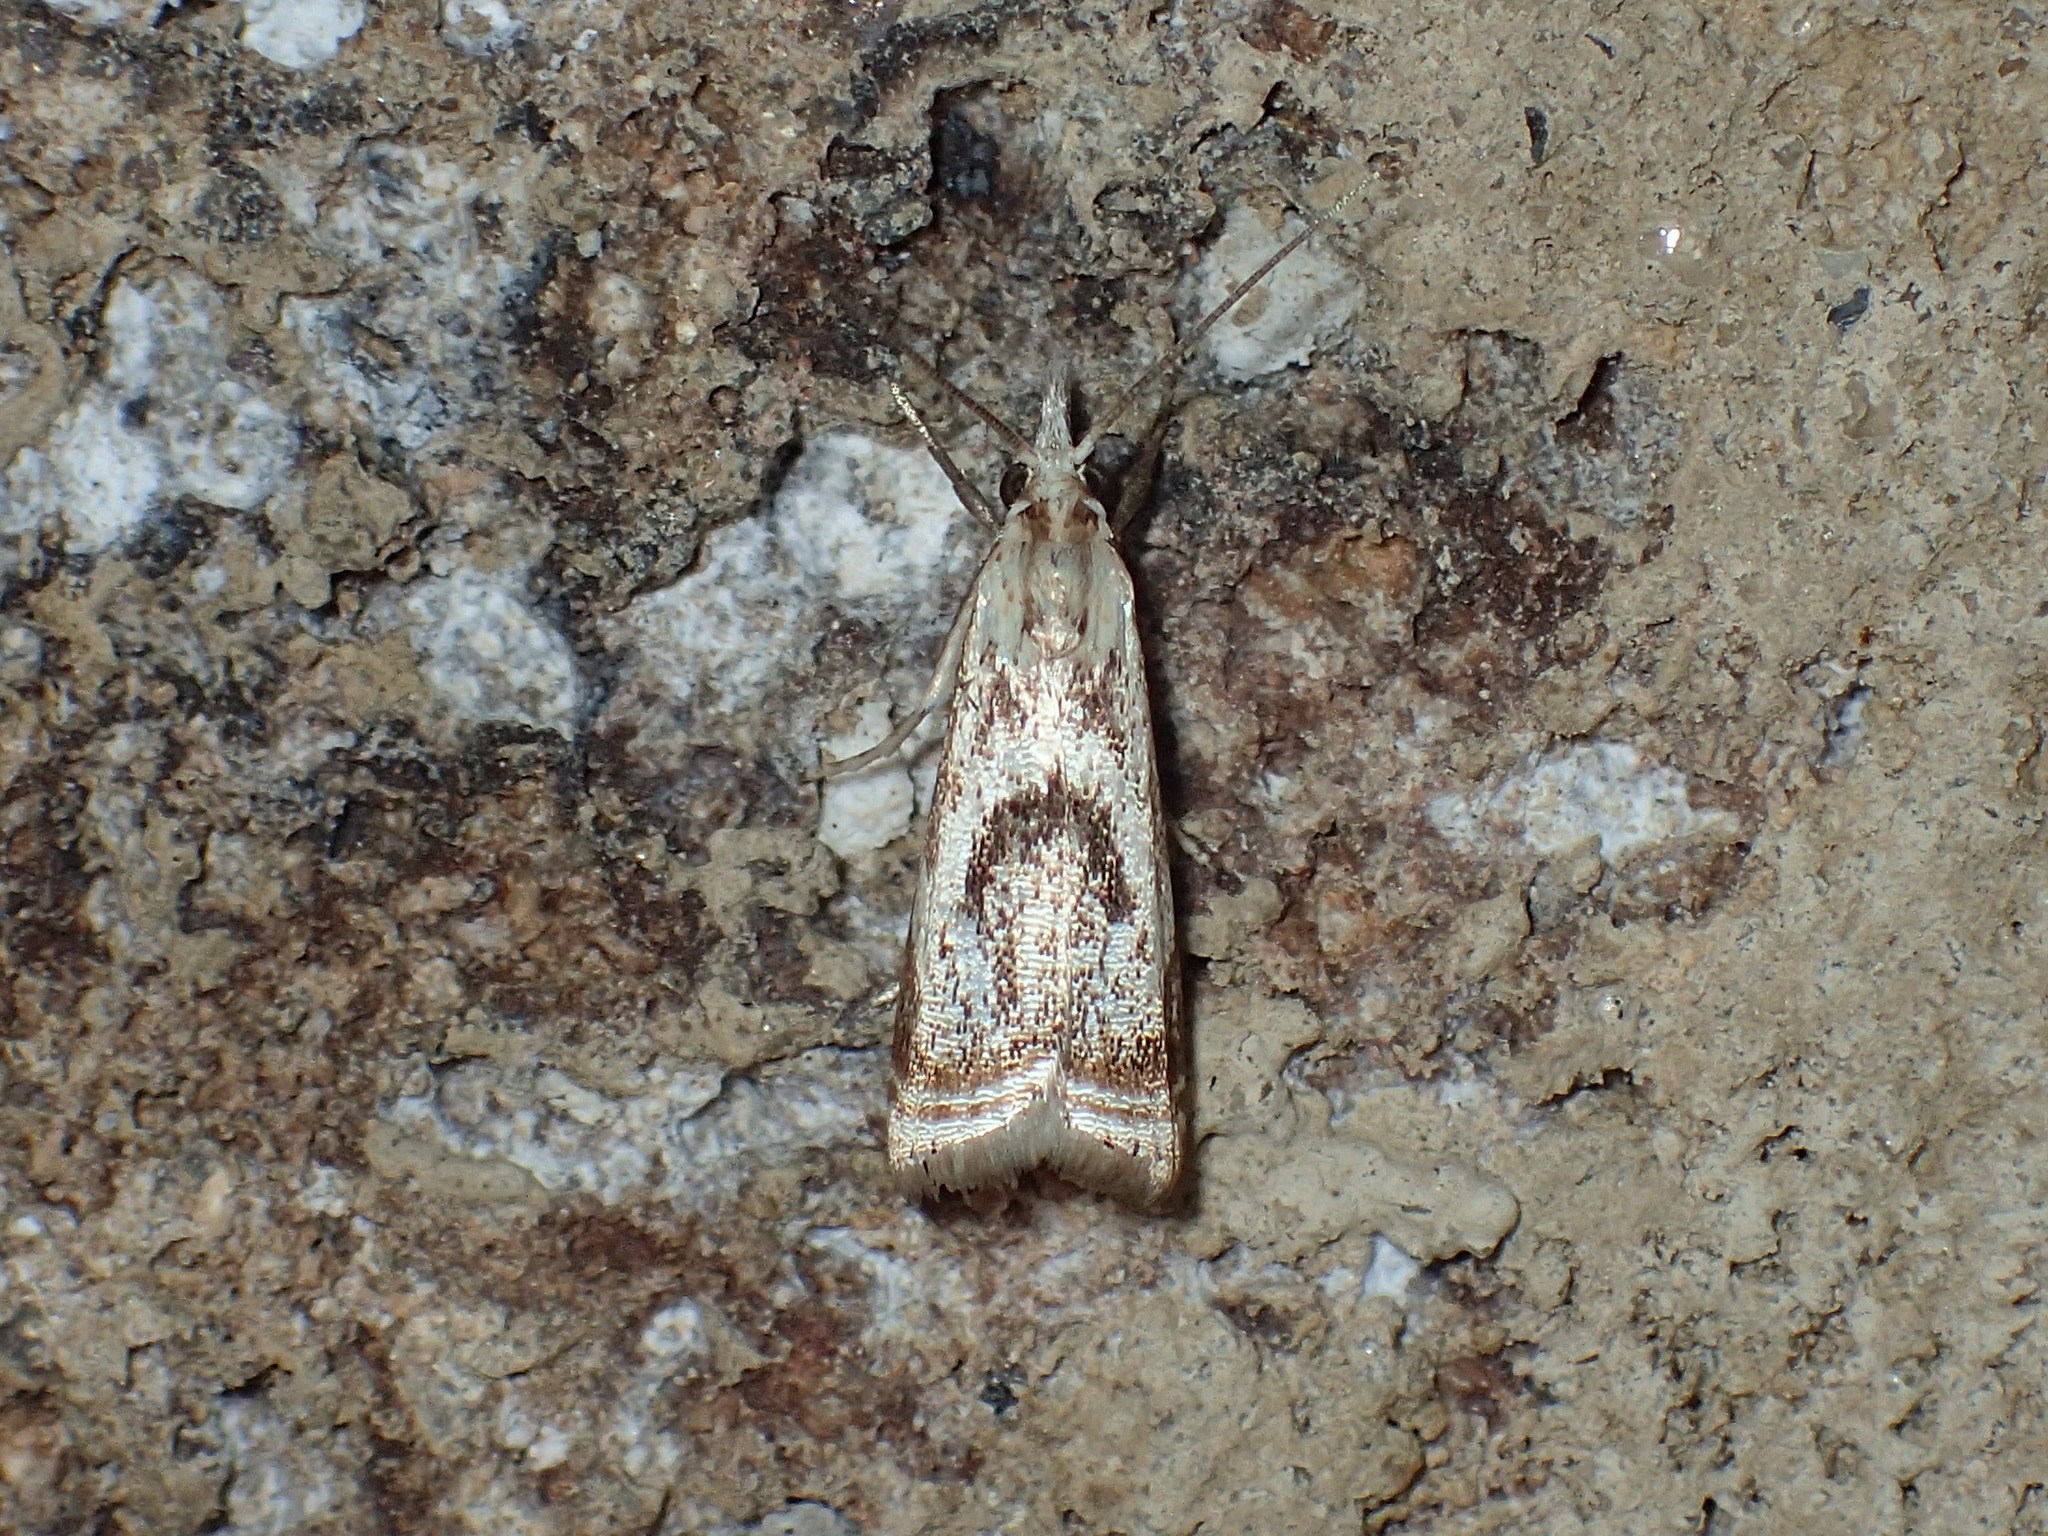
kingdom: Animalia
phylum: Arthropoda
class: Insecta
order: Lepidoptera
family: Crambidae
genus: Microcrambus
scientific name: Microcrambus elegans
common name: Elegant grass-veneer
